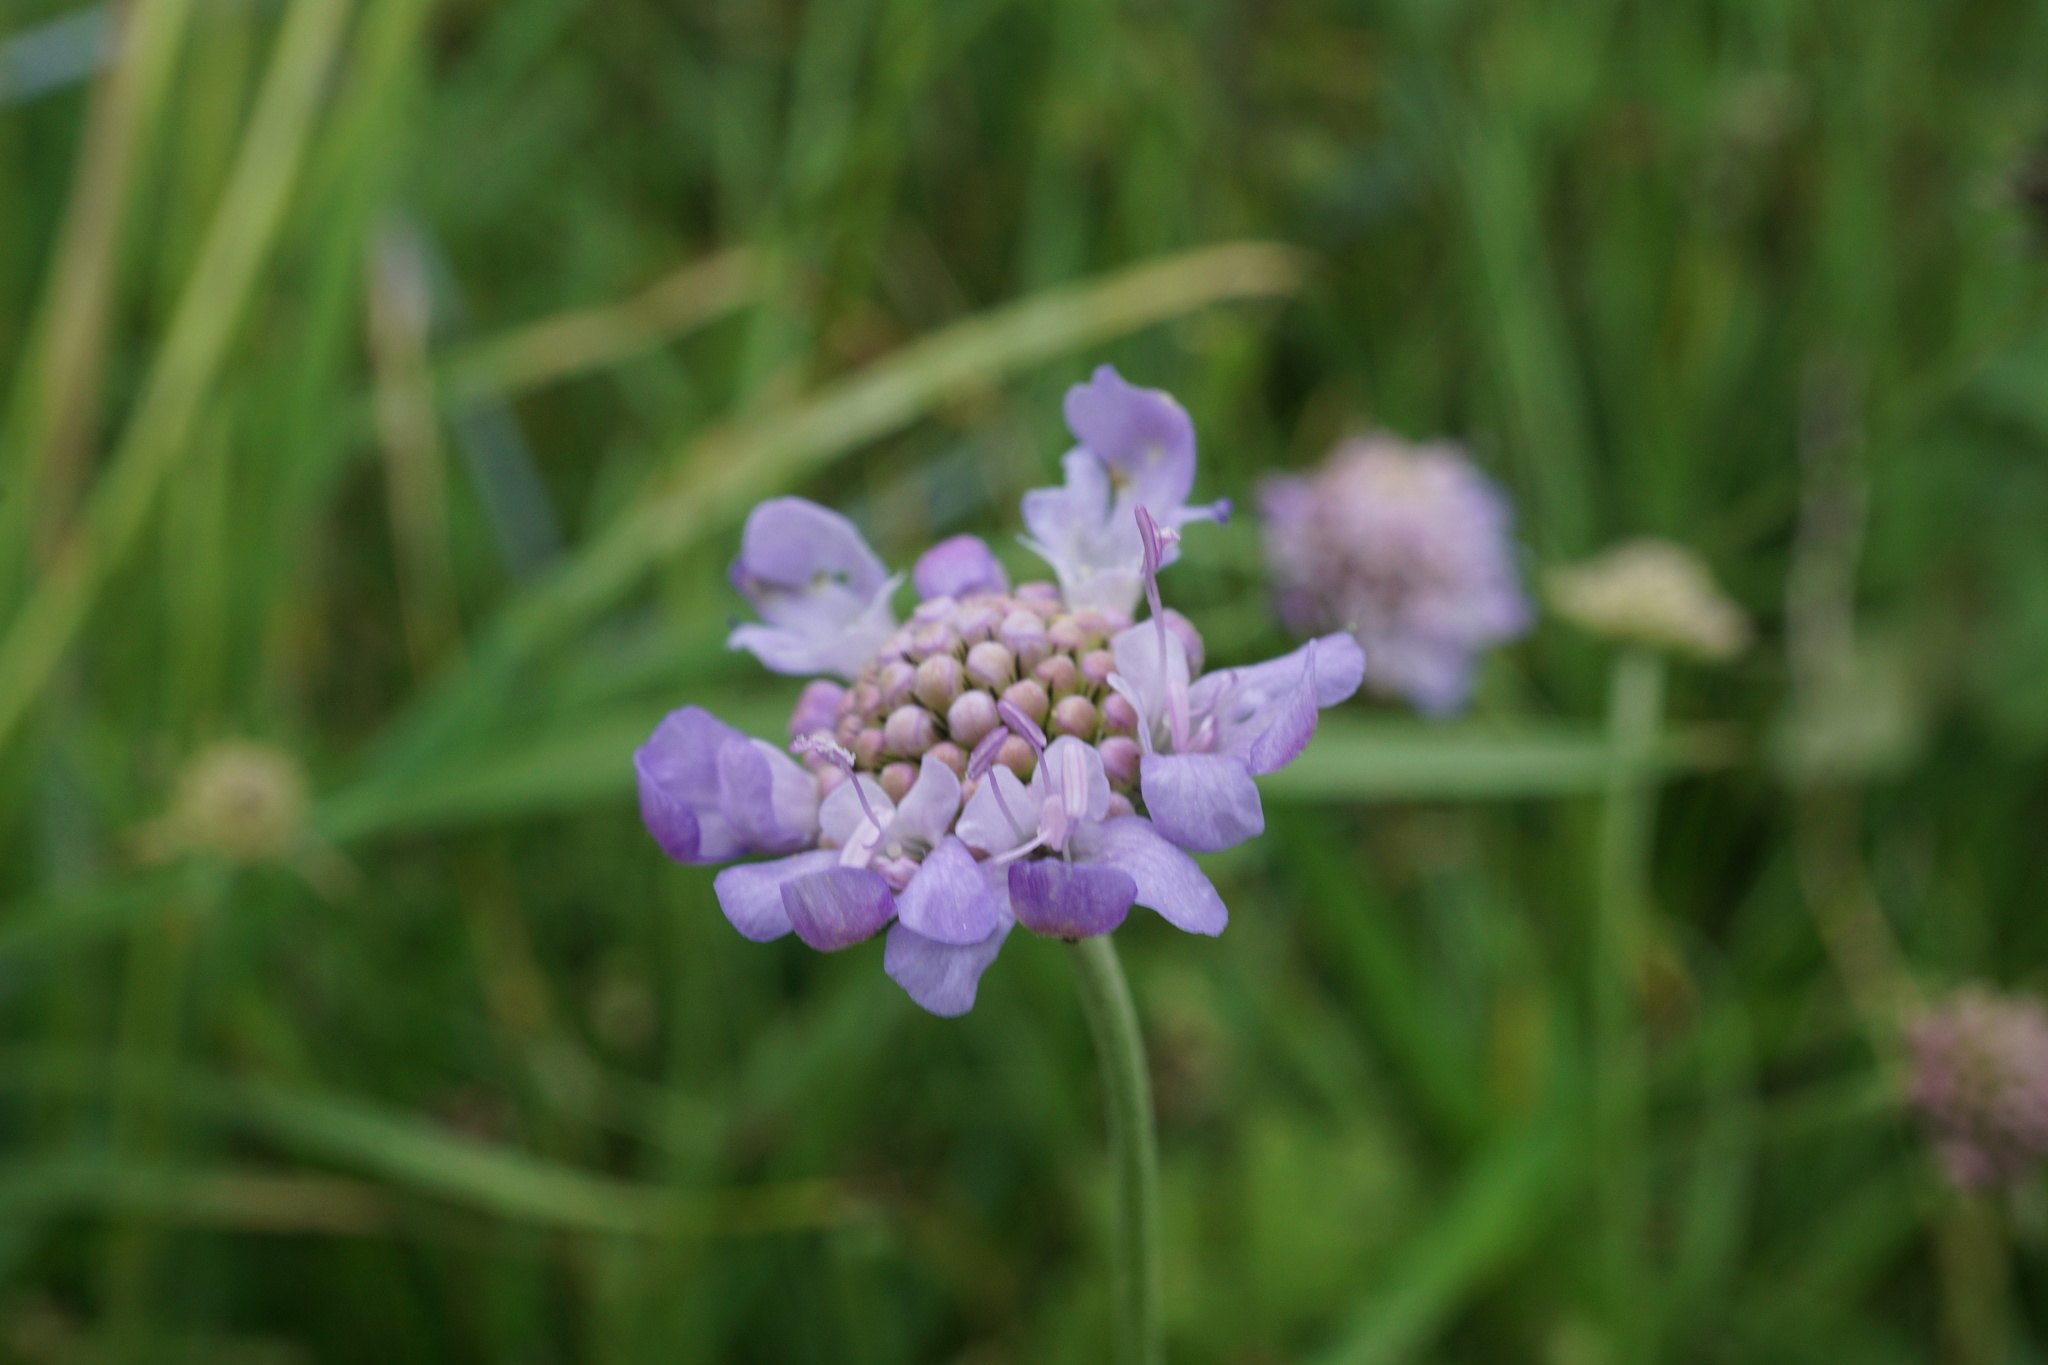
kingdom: Plantae
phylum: Tracheophyta
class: Magnoliopsida
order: Dipsacales
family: Caprifoliaceae
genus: Scabiosa
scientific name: Scabiosa columbaria
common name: Small scabious
